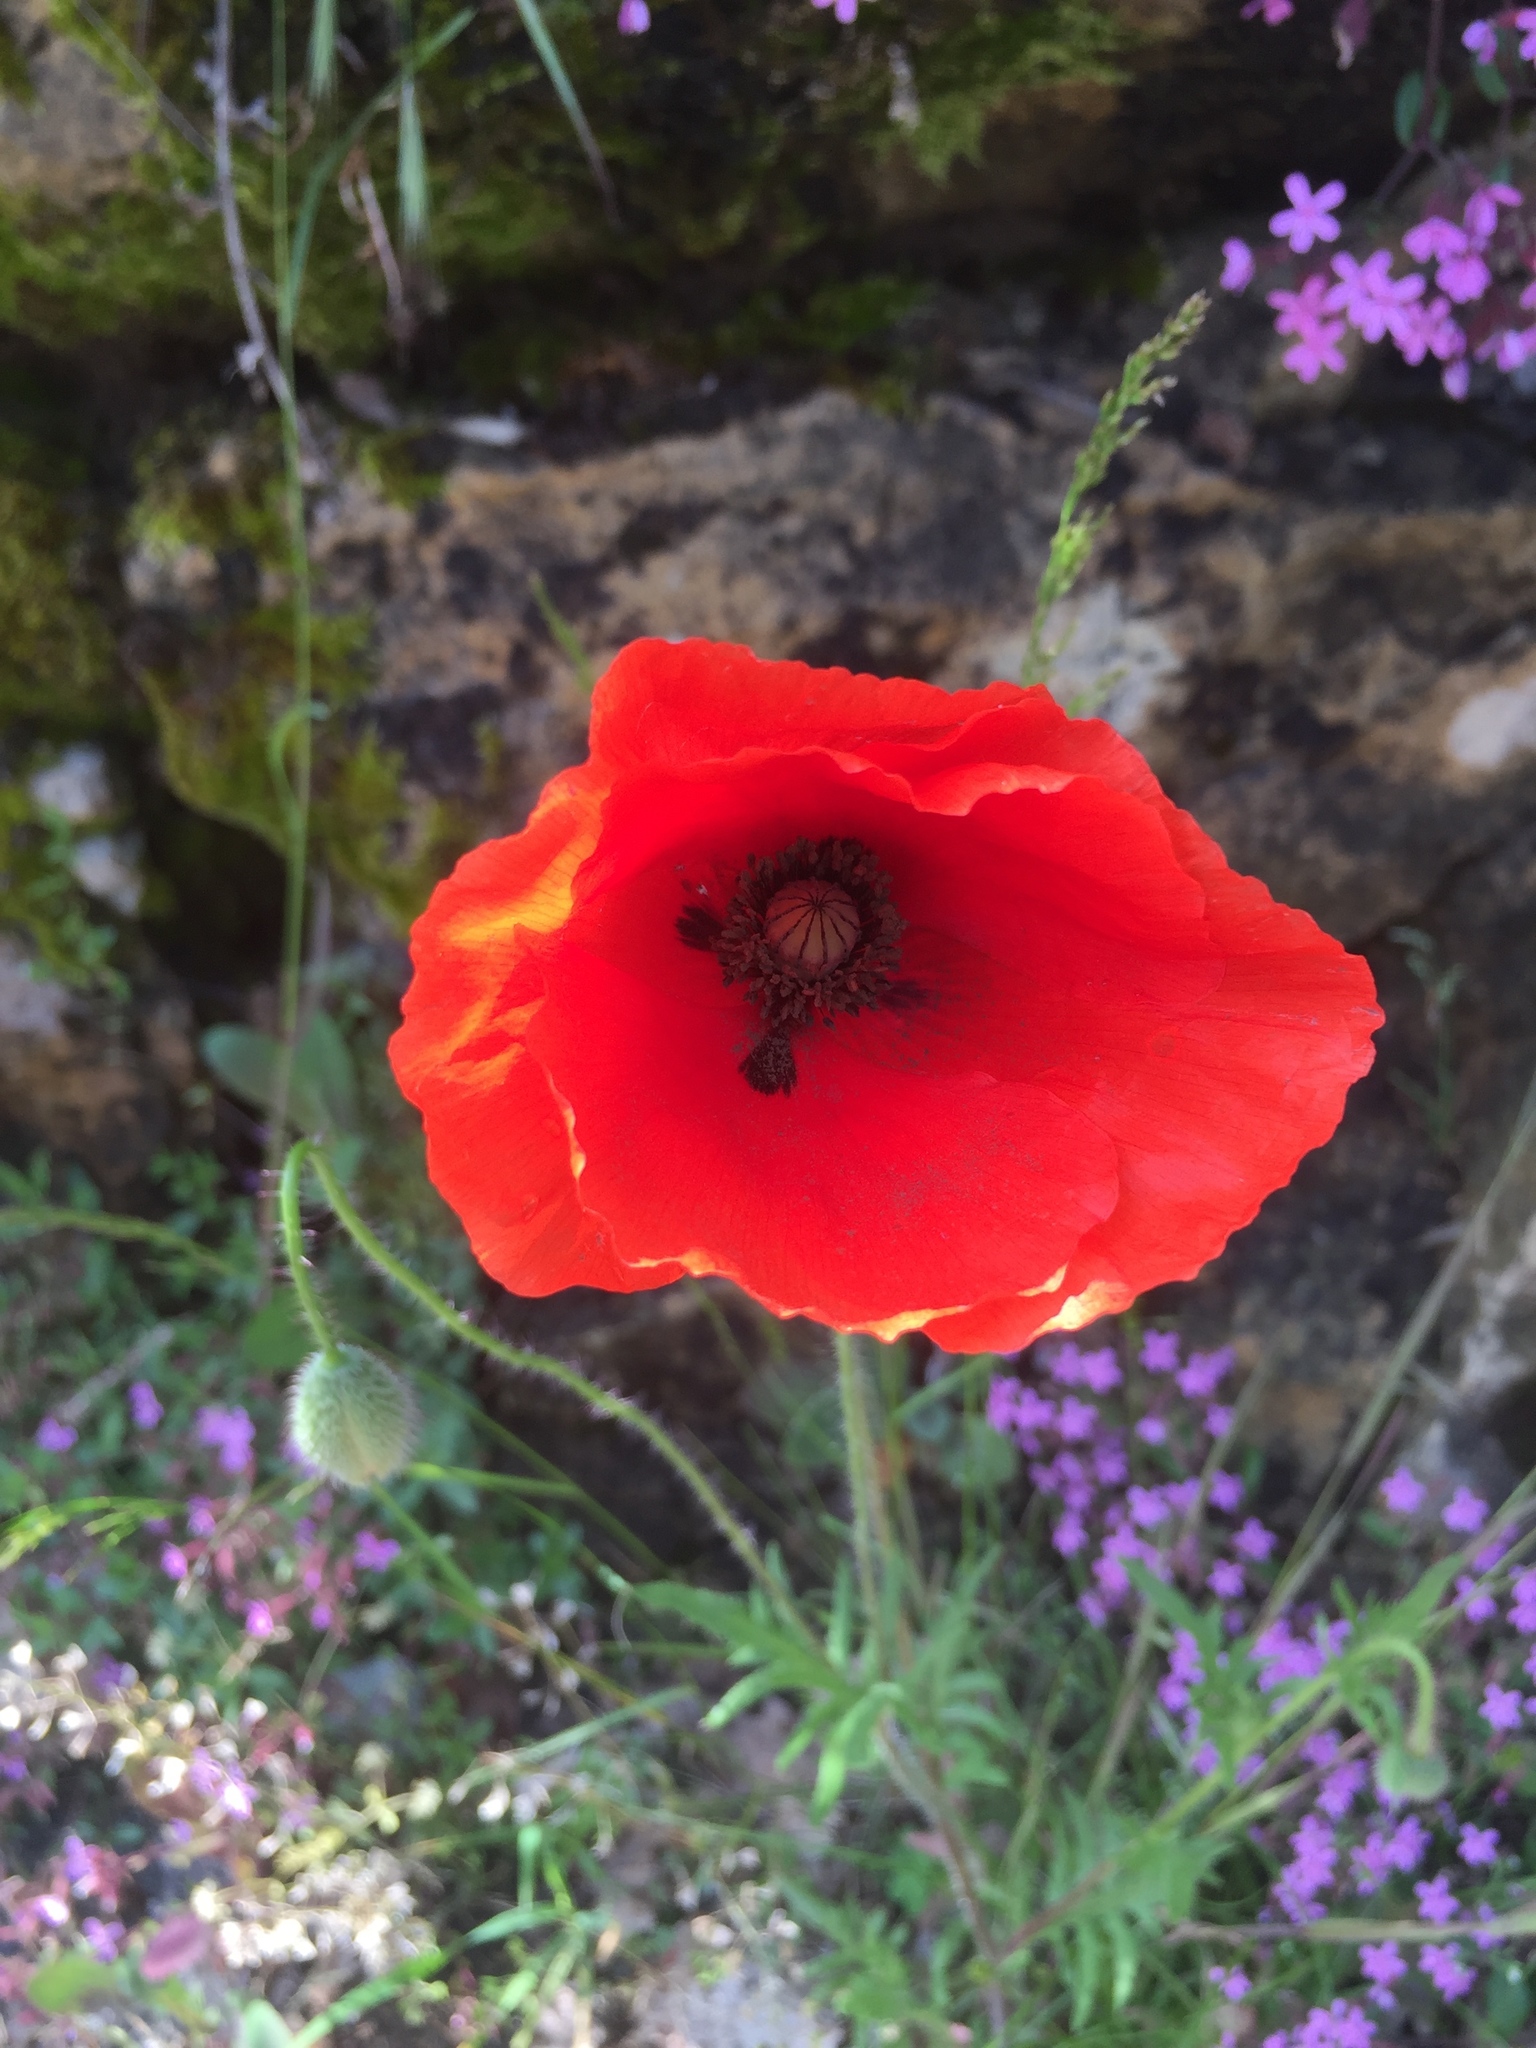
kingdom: Plantae
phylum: Tracheophyta
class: Magnoliopsida
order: Ranunculales
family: Papaveraceae
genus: Papaver
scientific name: Papaver rhoeas
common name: Corn poppy
